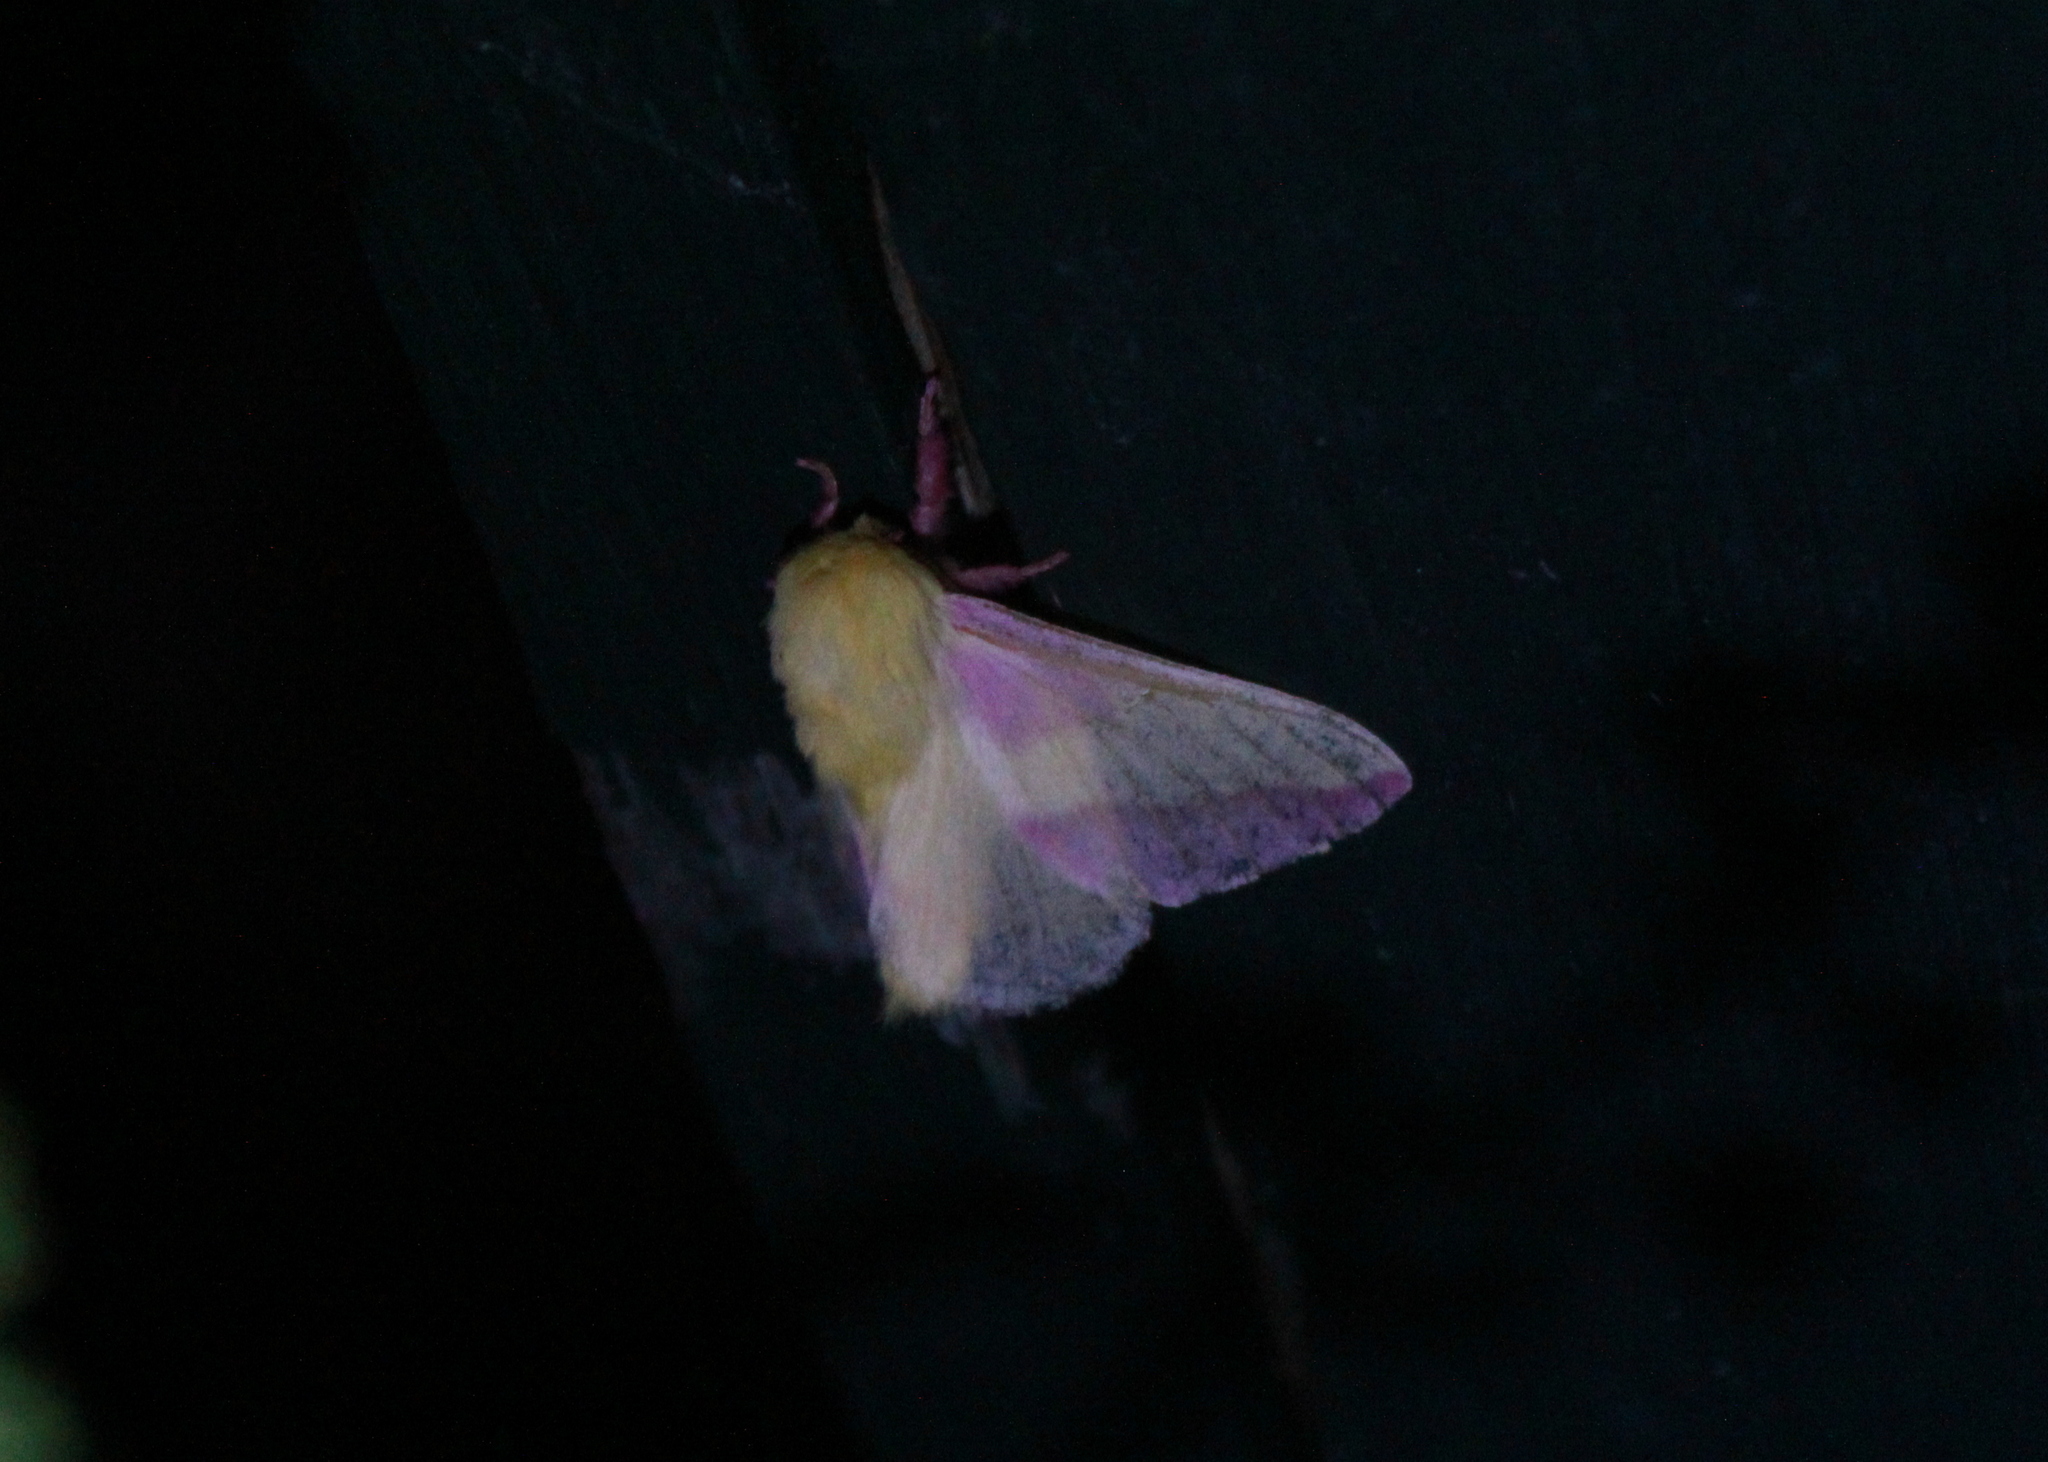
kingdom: Animalia
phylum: Arthropoda
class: Insecta
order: Lepidoptera
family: Saturniidae
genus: Dryocampa
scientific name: Dryocampa rubicunda
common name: Rosy maple moth
